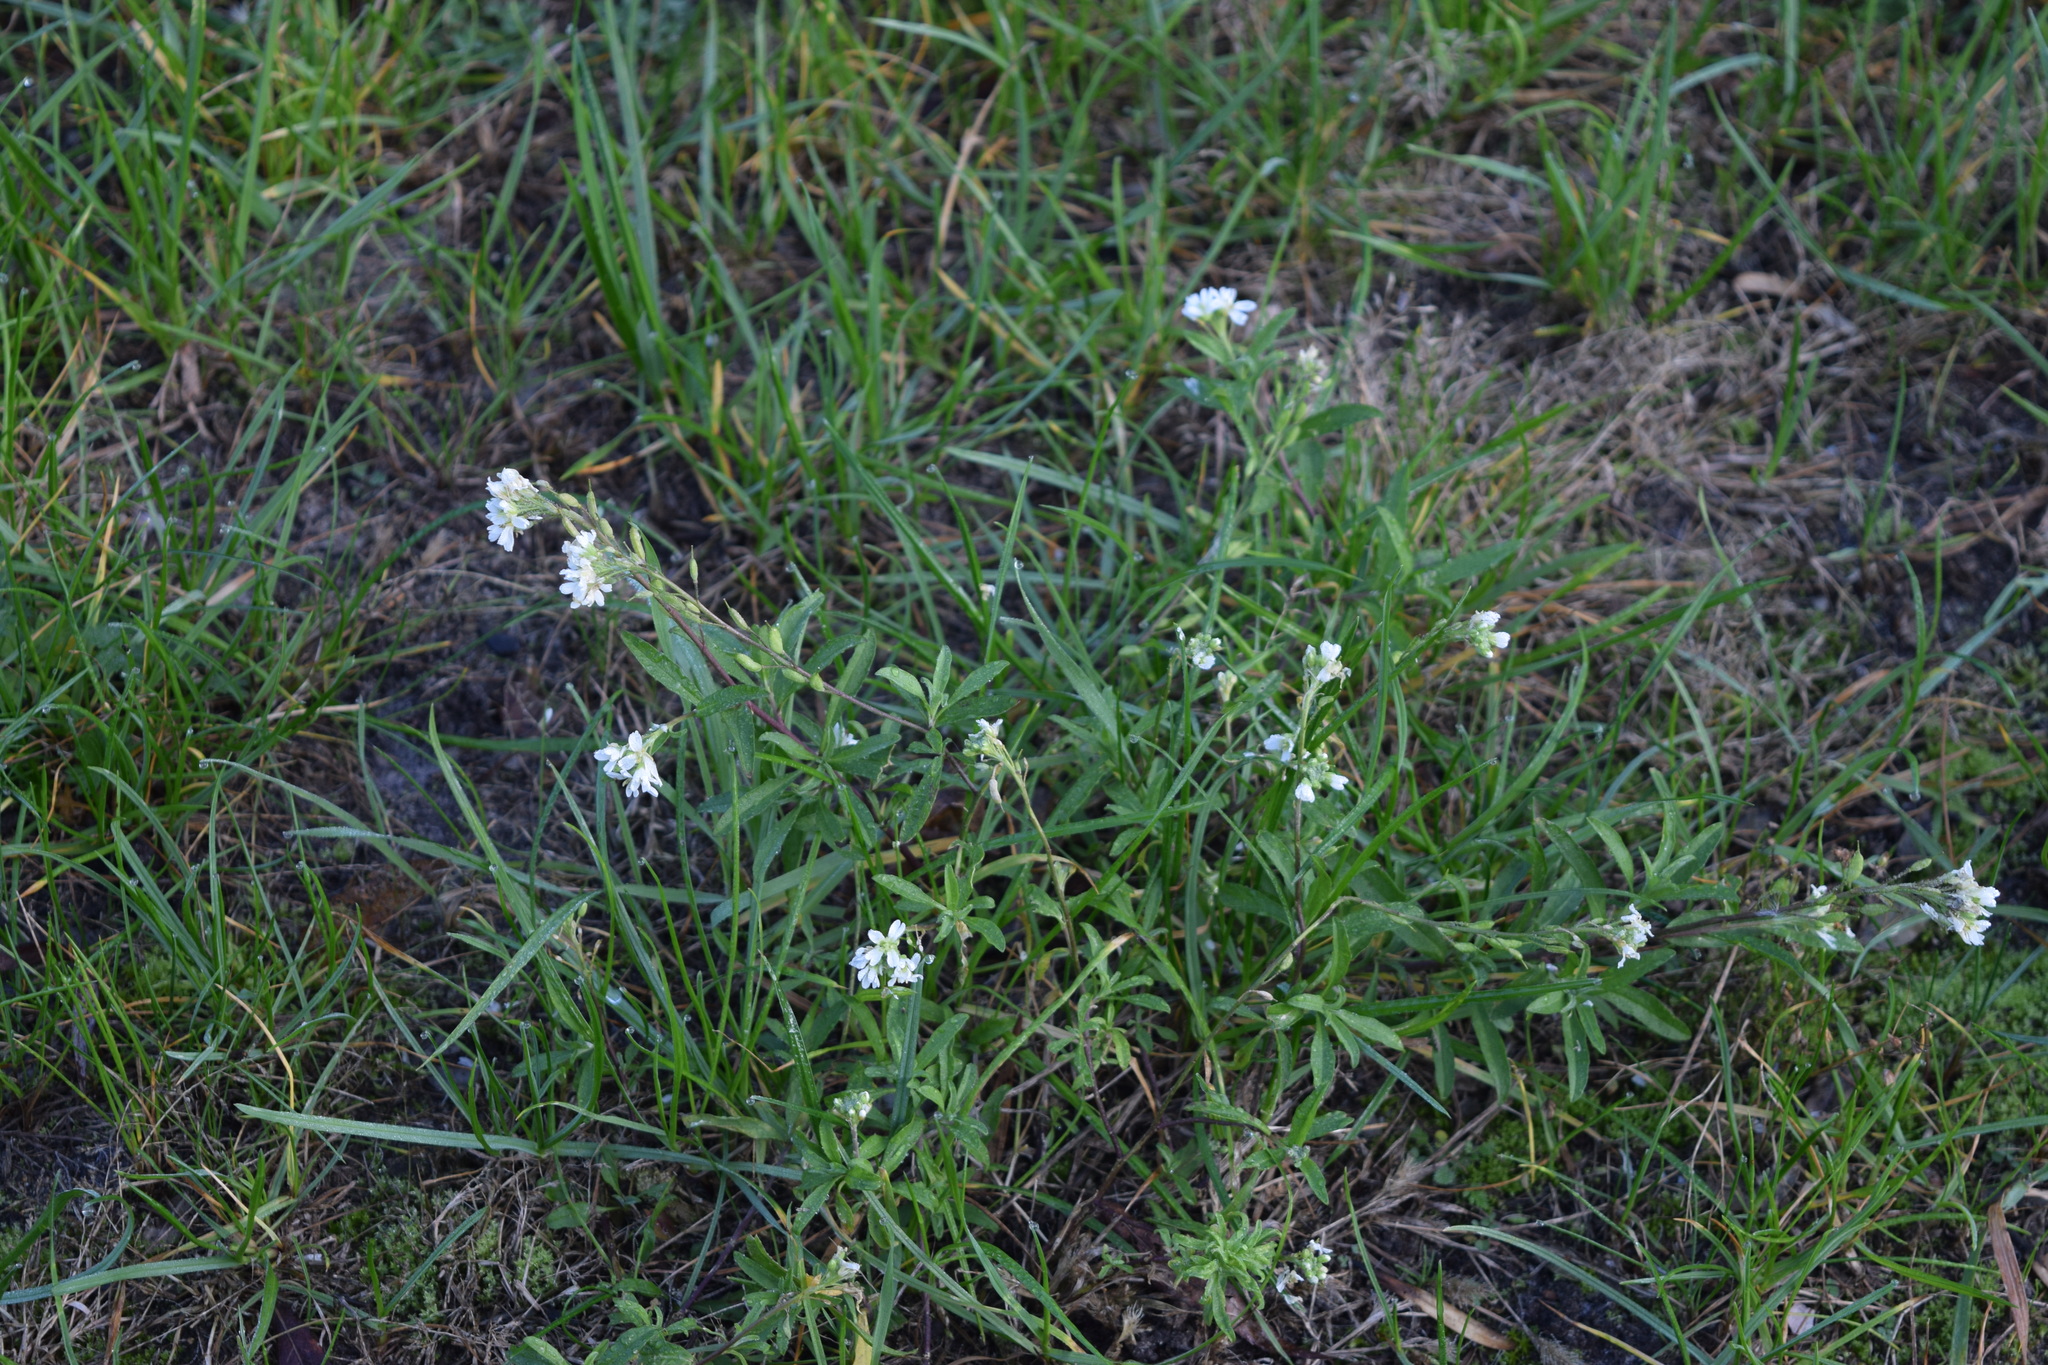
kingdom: Plantae
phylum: Tracheophyta
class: Magnoliopsida
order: Brassicales
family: Brassicaceae
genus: Berteroa
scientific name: Berteroa incana
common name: Hoary alison
